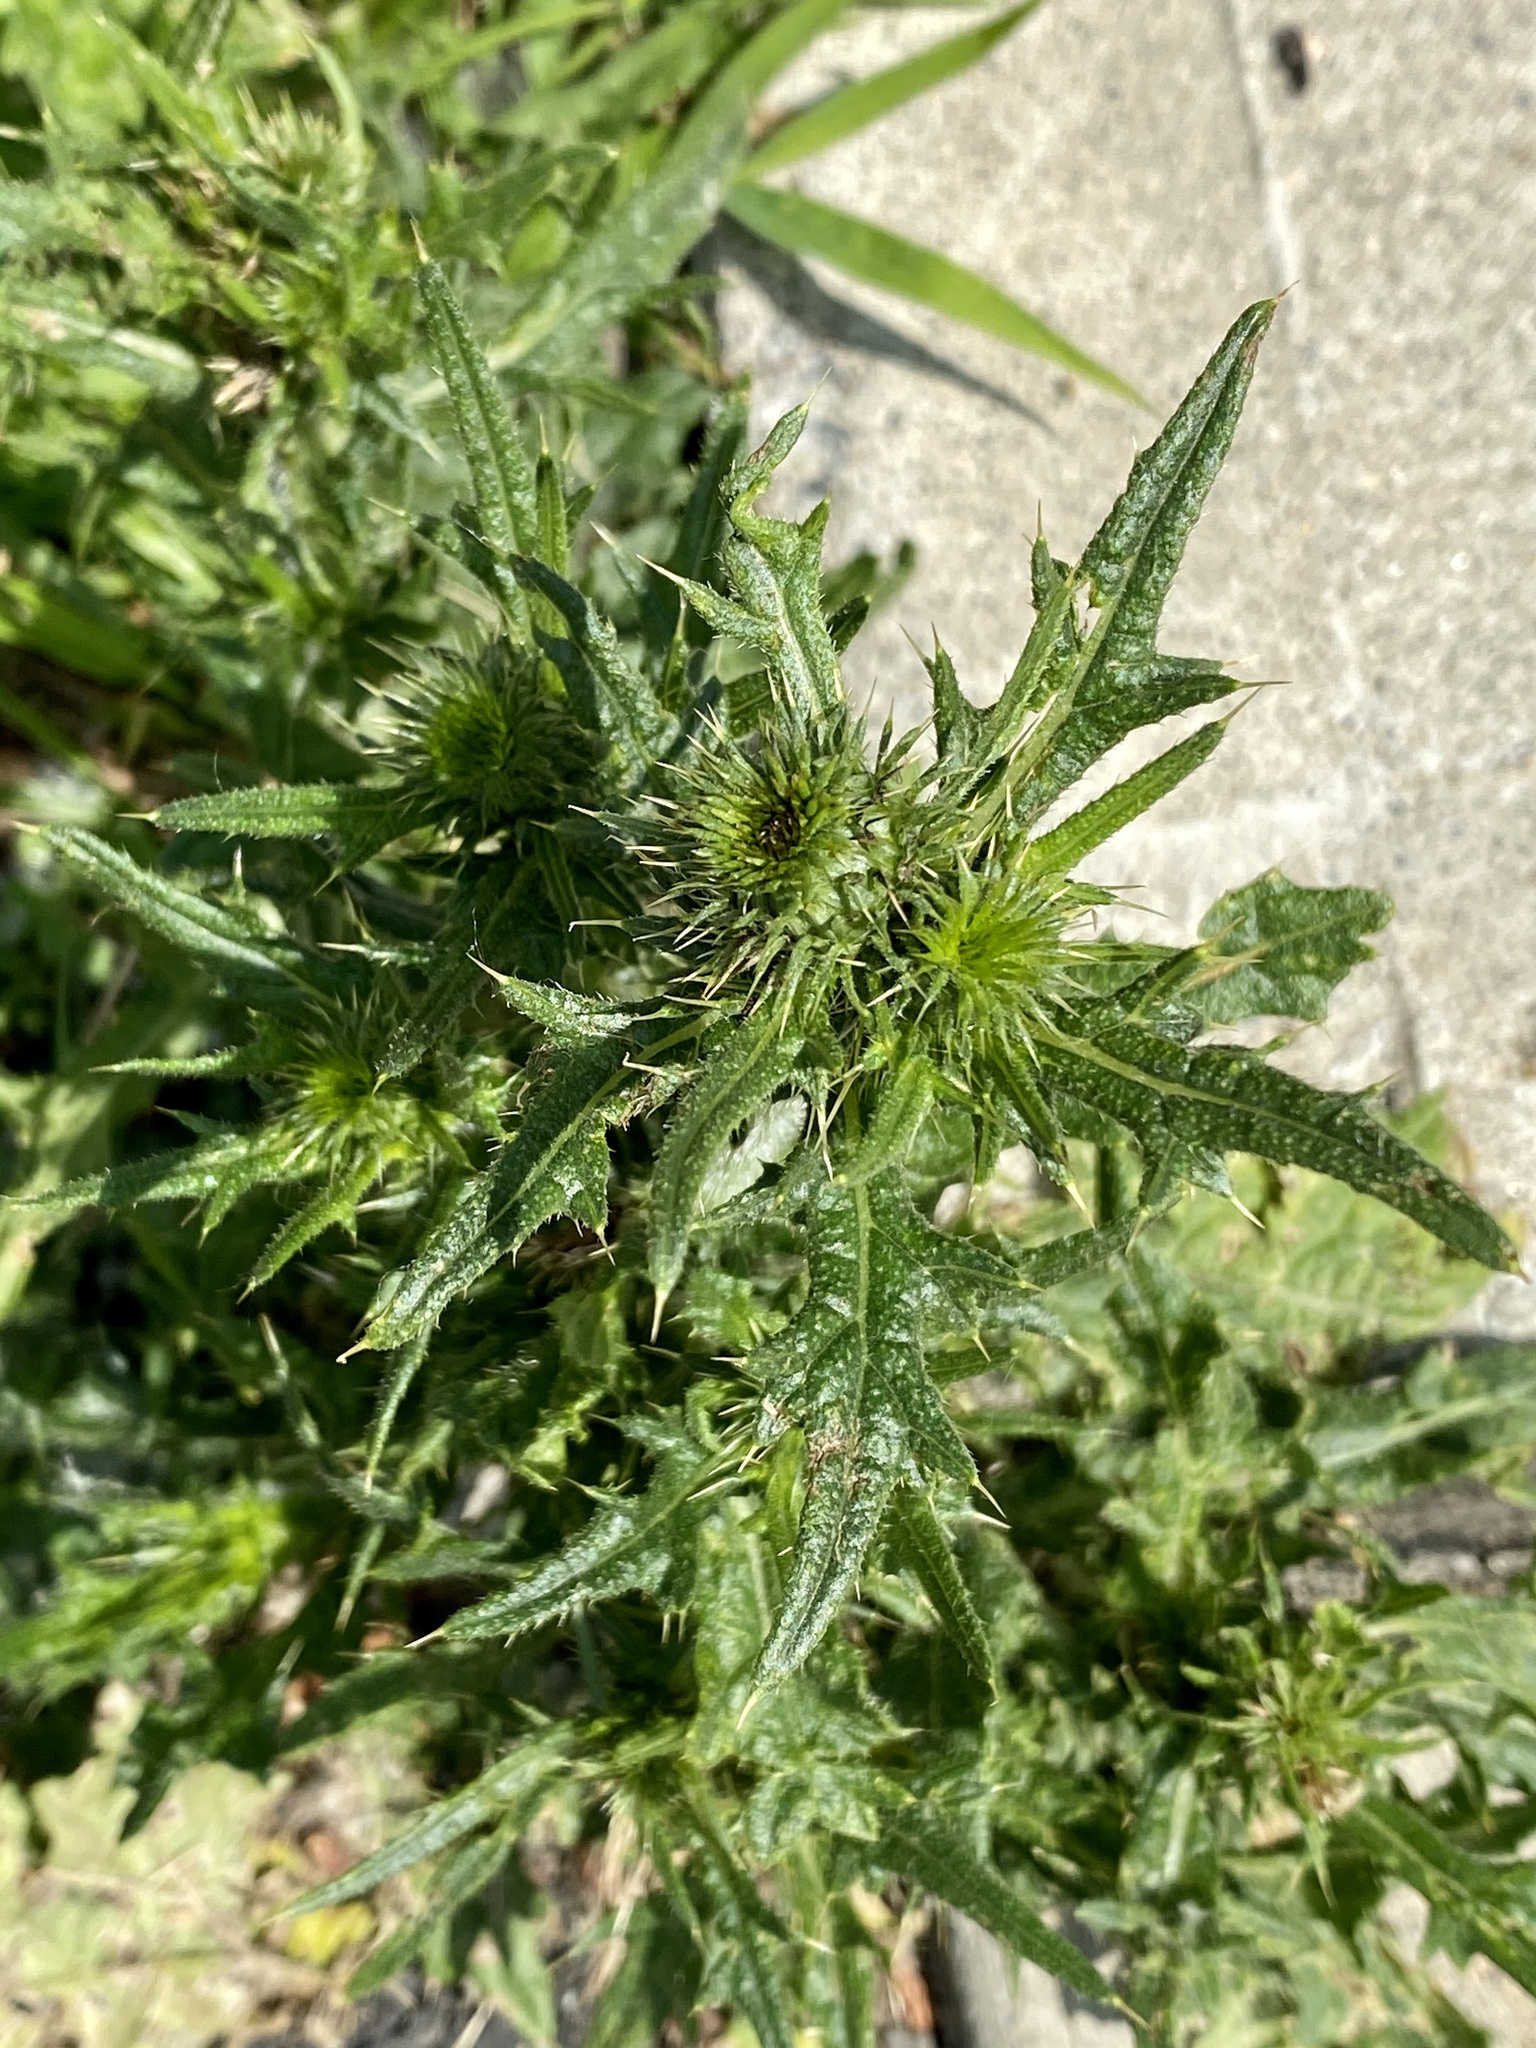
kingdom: Plantae
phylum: Tracheophyta
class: Magnoliopsida
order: Asterales
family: Asteraceae
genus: Cirsium
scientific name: Cirsium vulgare
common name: Bull thistle
